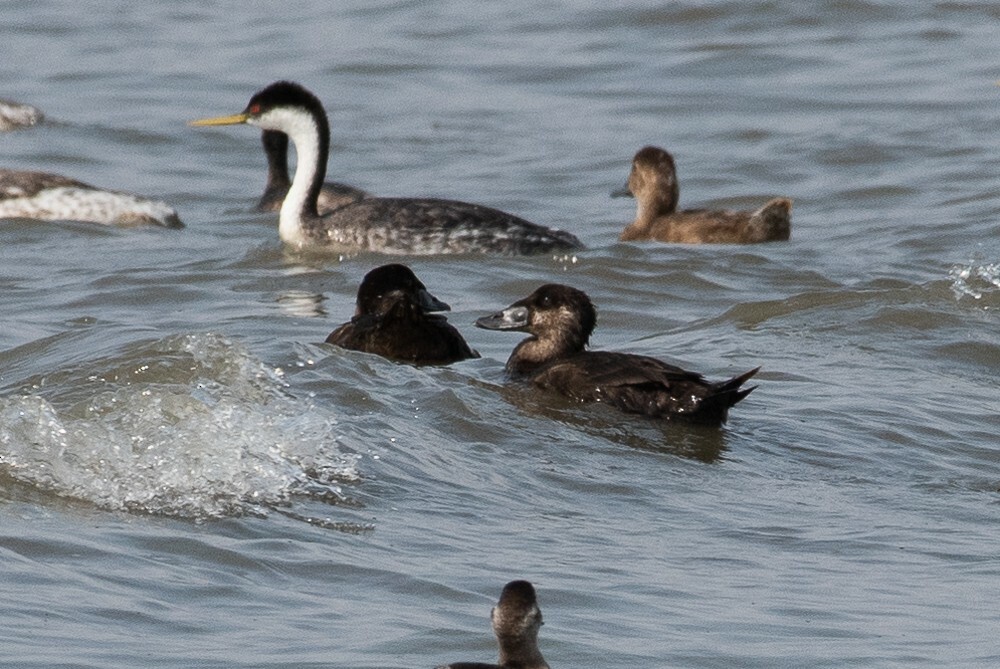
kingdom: Animalia
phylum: Chordata
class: Aves
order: Anseriformes
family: Anatidae
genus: Melanitta
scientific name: Melanitta perspicillata
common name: Surf scoter
